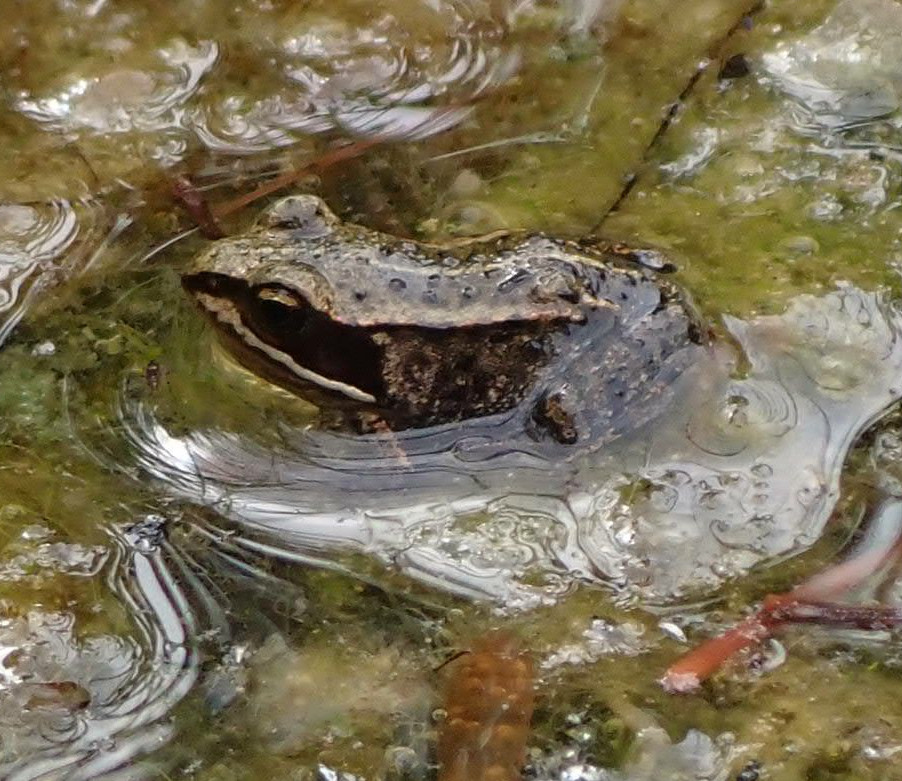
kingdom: Animalia
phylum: Chordata
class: Amphibia
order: Anura
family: Ranidae
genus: Lithobates
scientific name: Lithobates sylvaticus
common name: Wood frog
